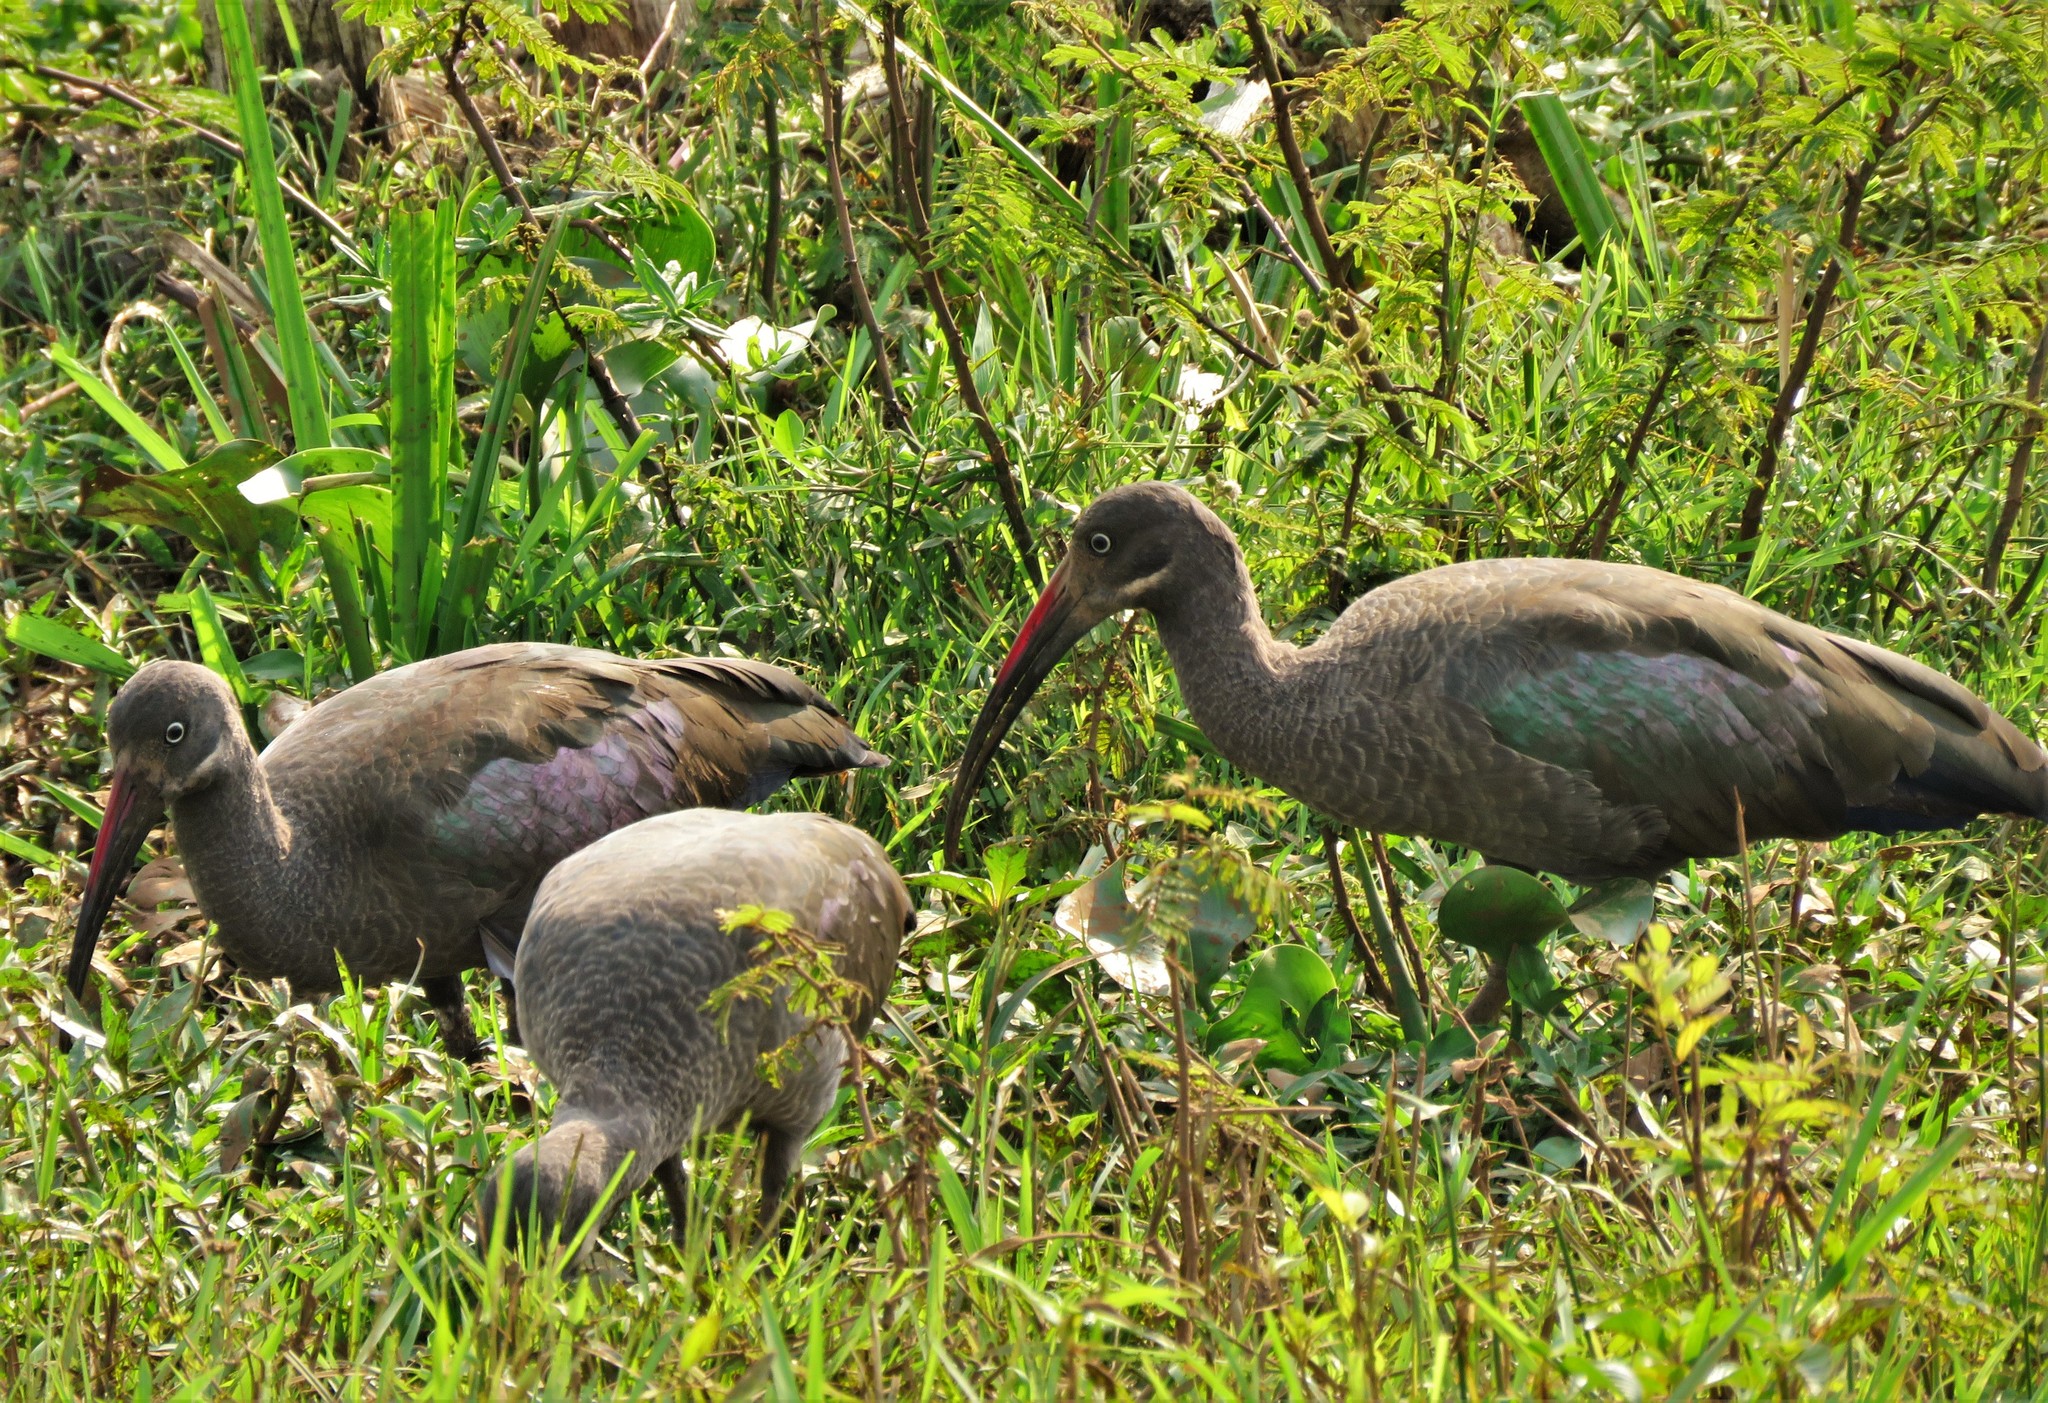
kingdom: Animalia
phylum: Chordata
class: Aves
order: Pelecaniformes
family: Threskiornithidae
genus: Bostrychia
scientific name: Bostrychia hagedash
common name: Hadada ibis
